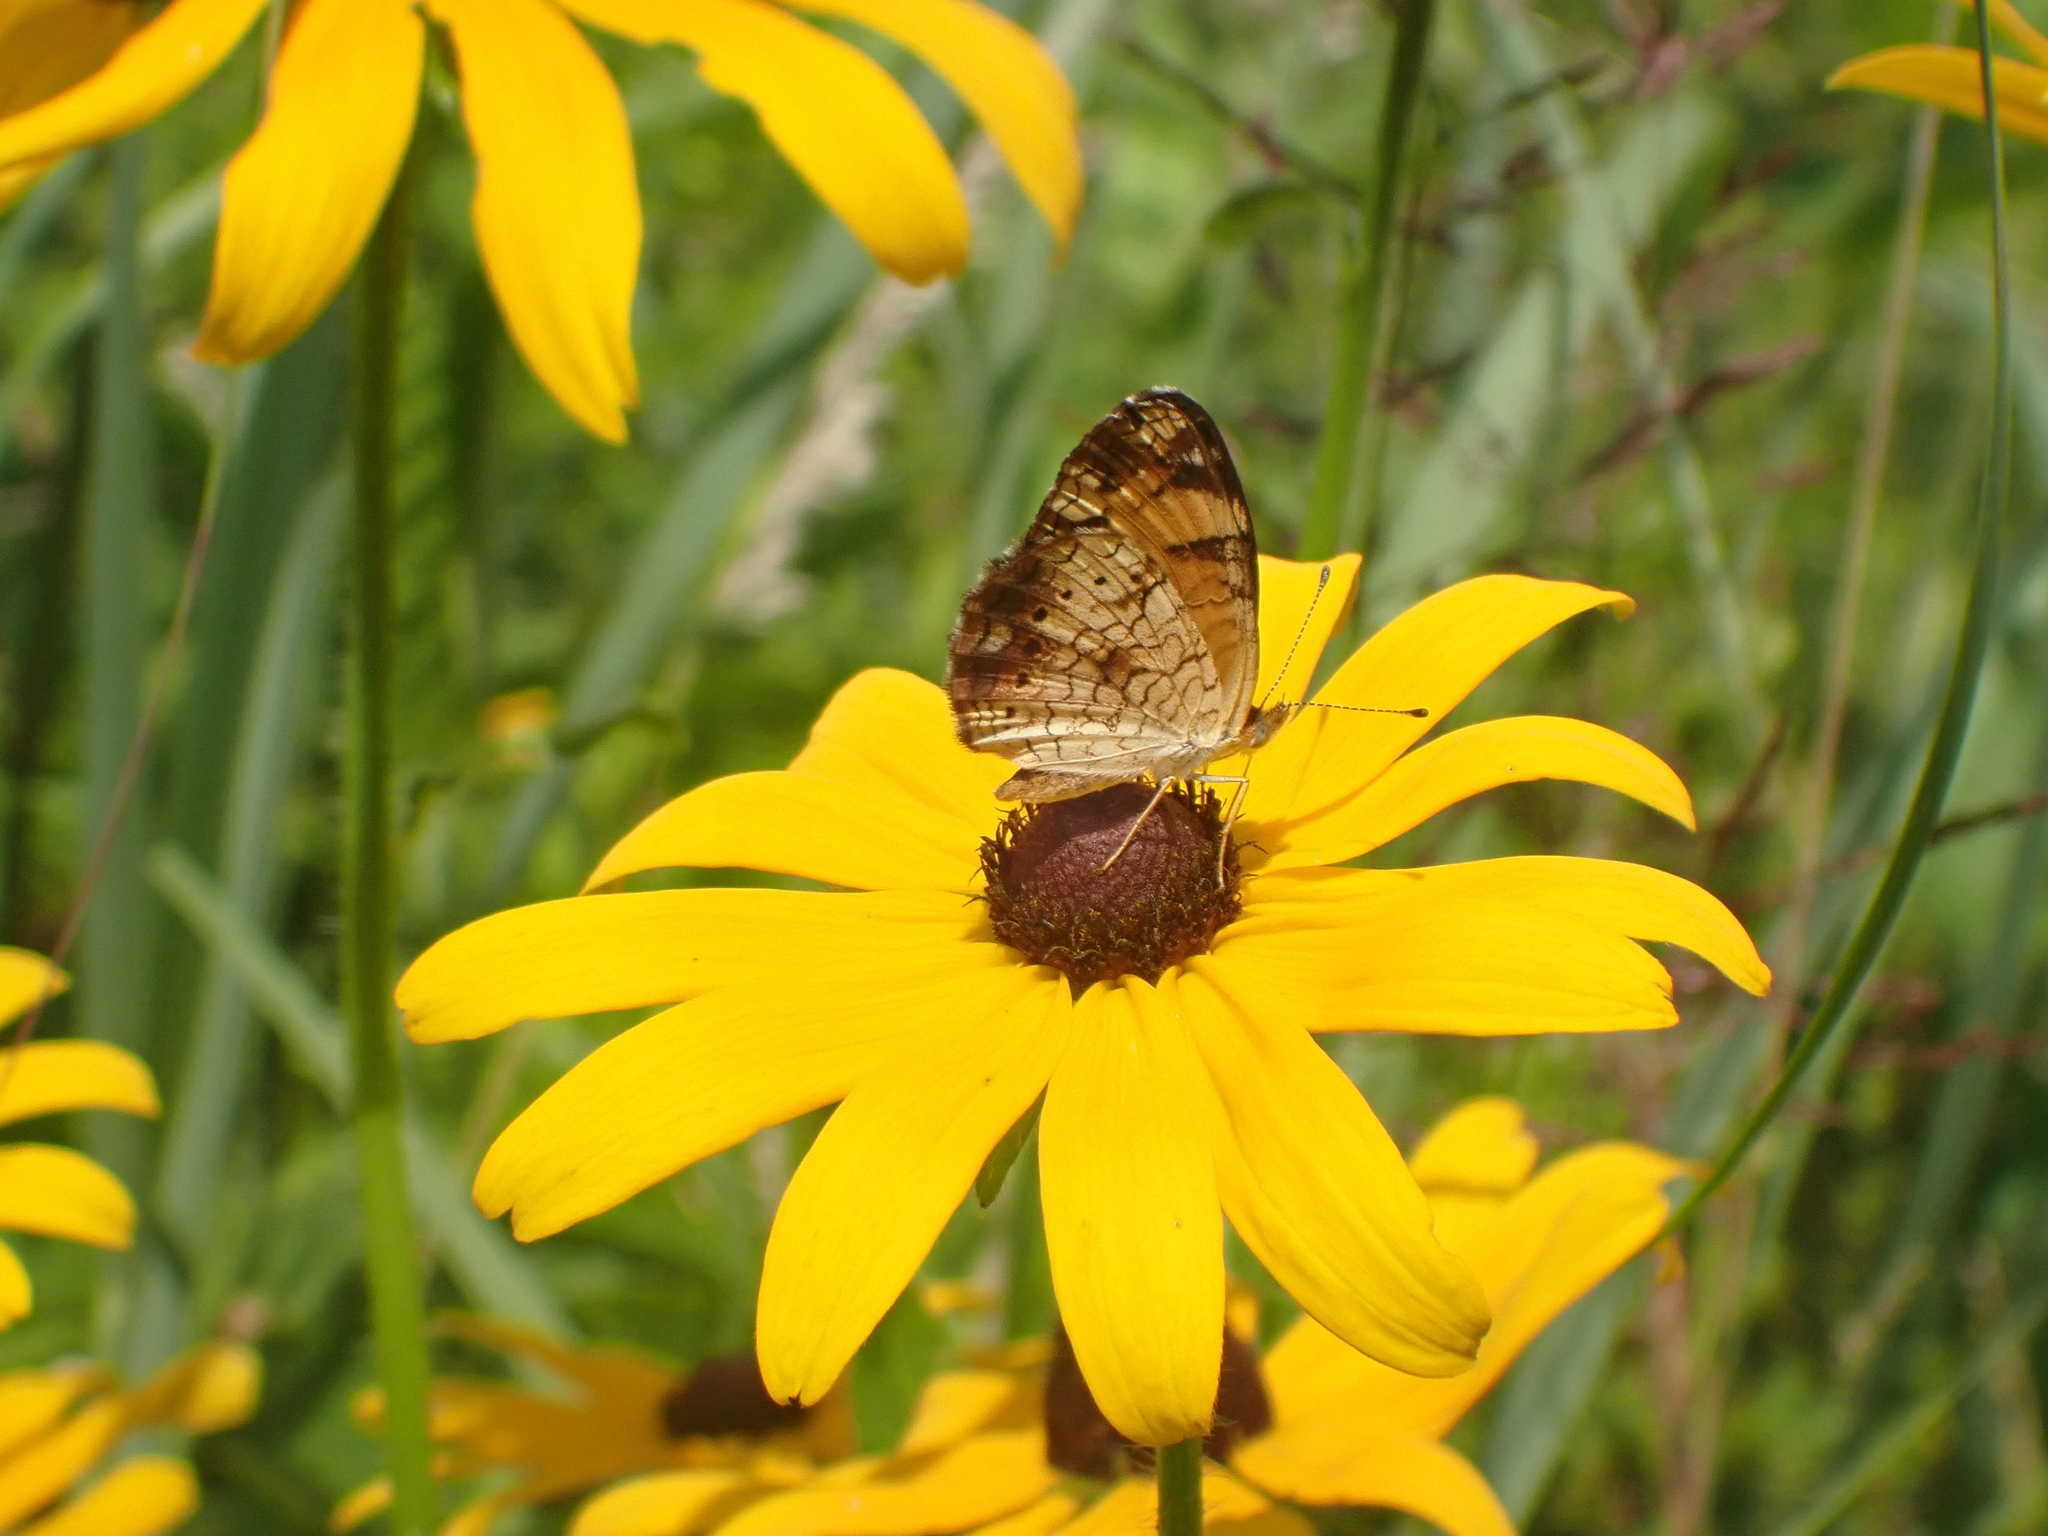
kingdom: Animalia
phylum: Arthropoda
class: Insecta
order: Lepidoptera
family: Nymphalidae
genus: Phyciodes
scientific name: Phyciodes tharos
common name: Pearl crescent
